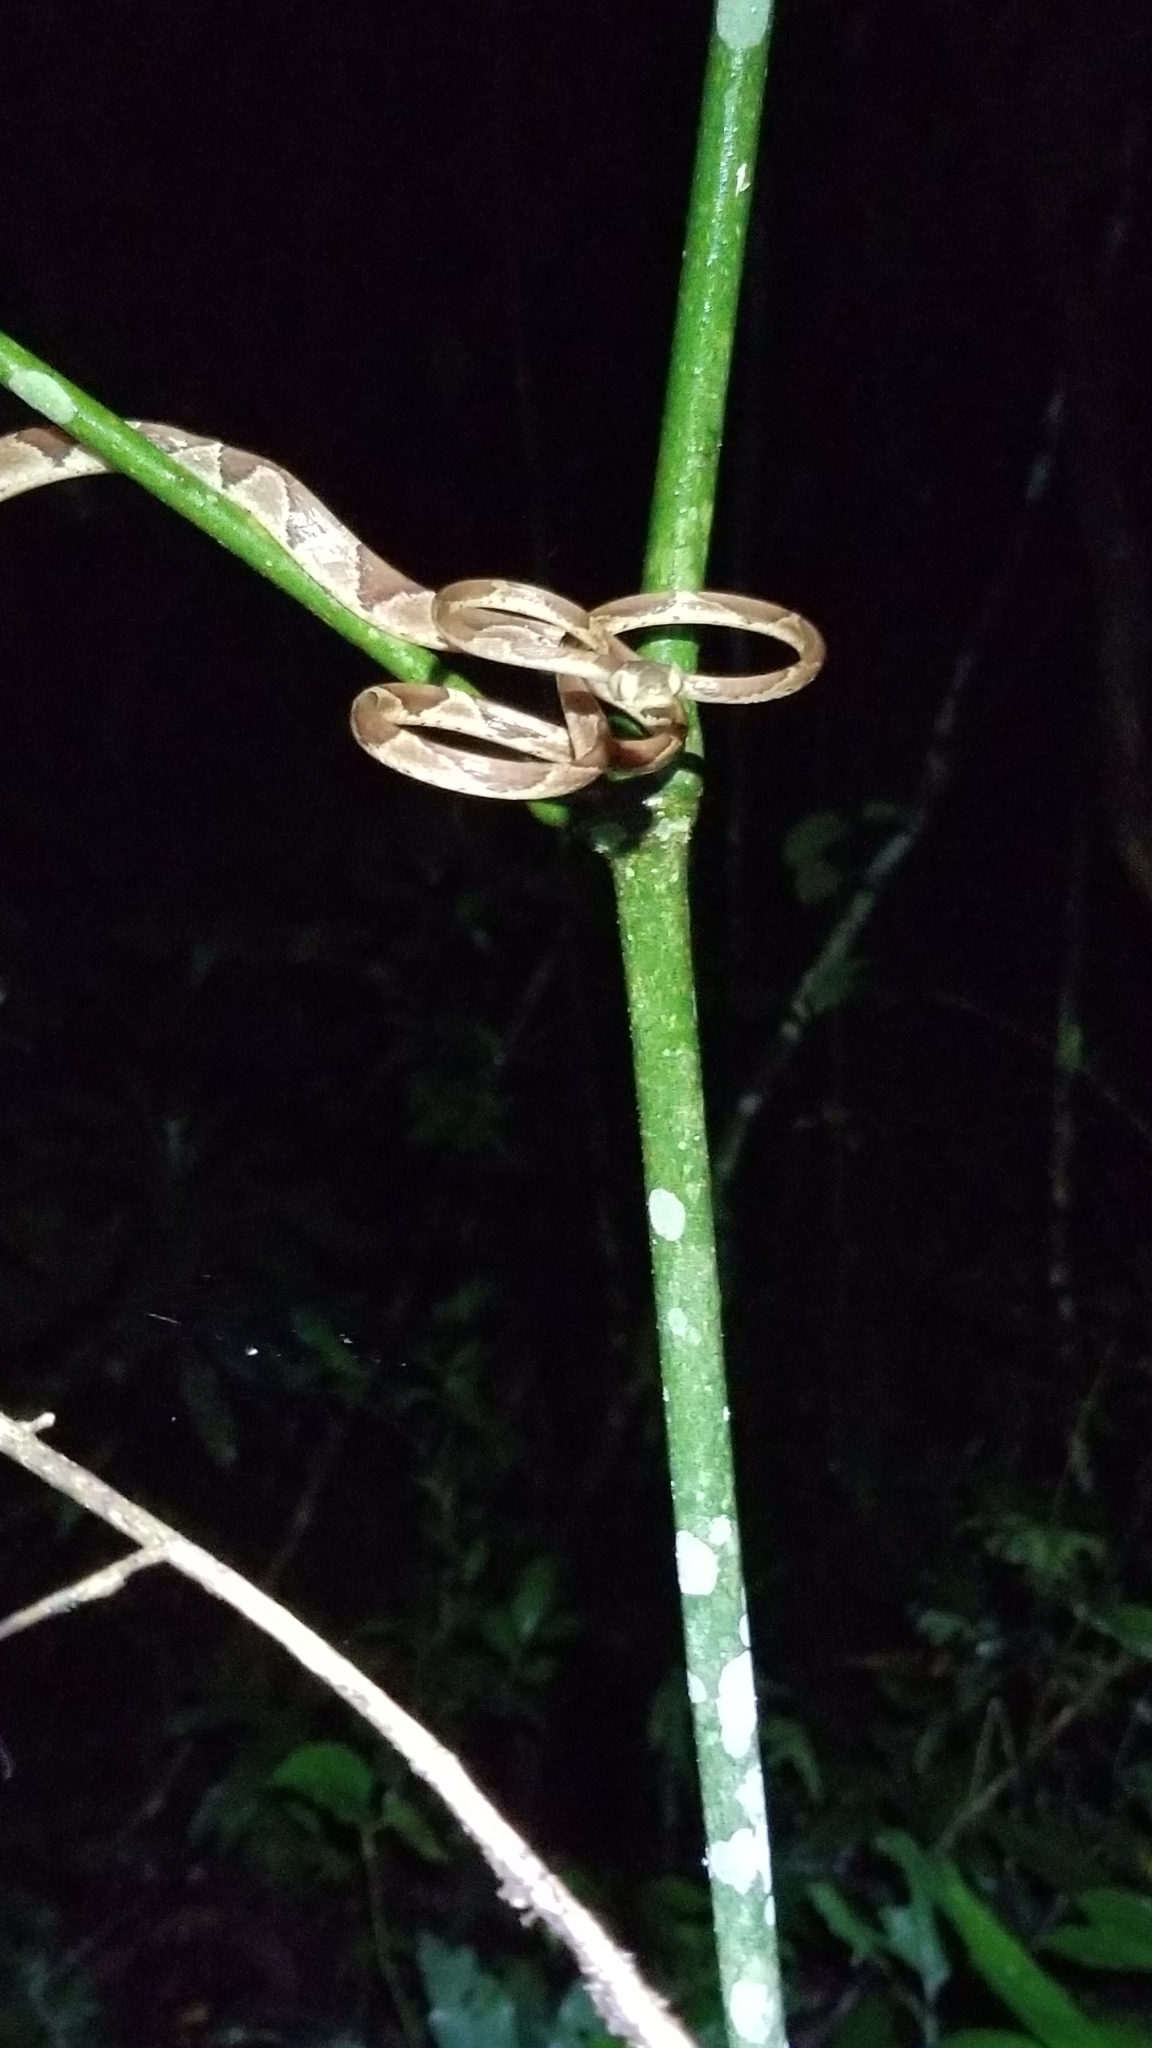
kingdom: Animalia
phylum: Chordata
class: Squamata
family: Colubridae
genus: Imantodes
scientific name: Imantodes cenchoa
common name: Blunthead tree snake
